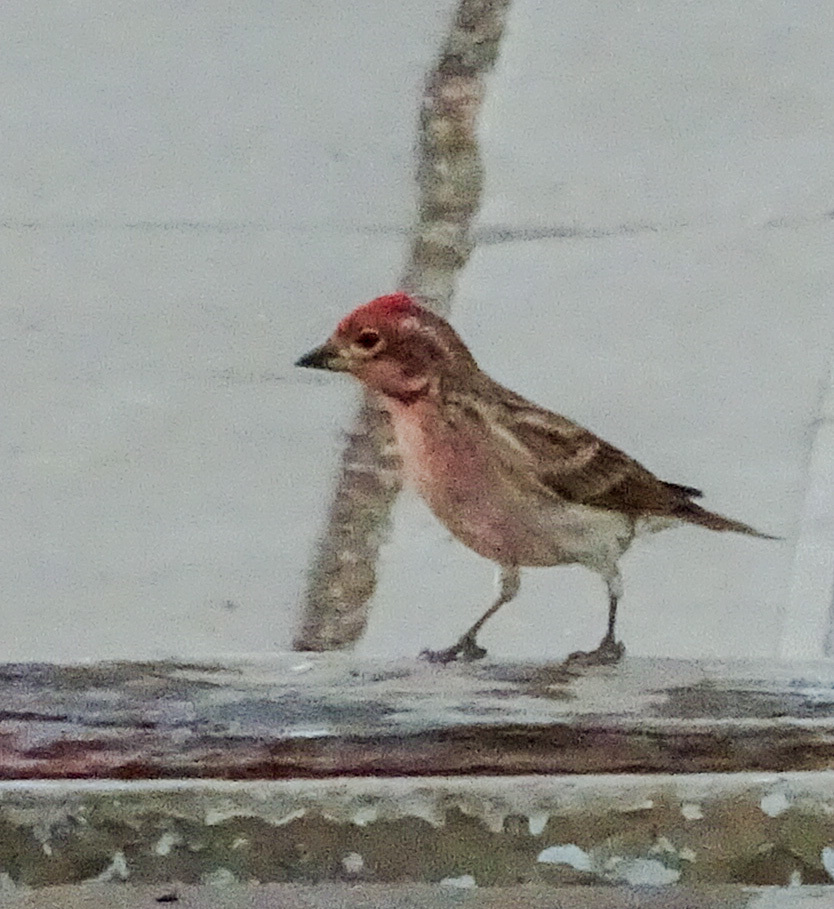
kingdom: Animalia
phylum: Chordata
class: Aves
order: Passeriformes
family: Fringillidae
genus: Haemorhous
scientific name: Haemorhous cassinii
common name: Cassin's finch
